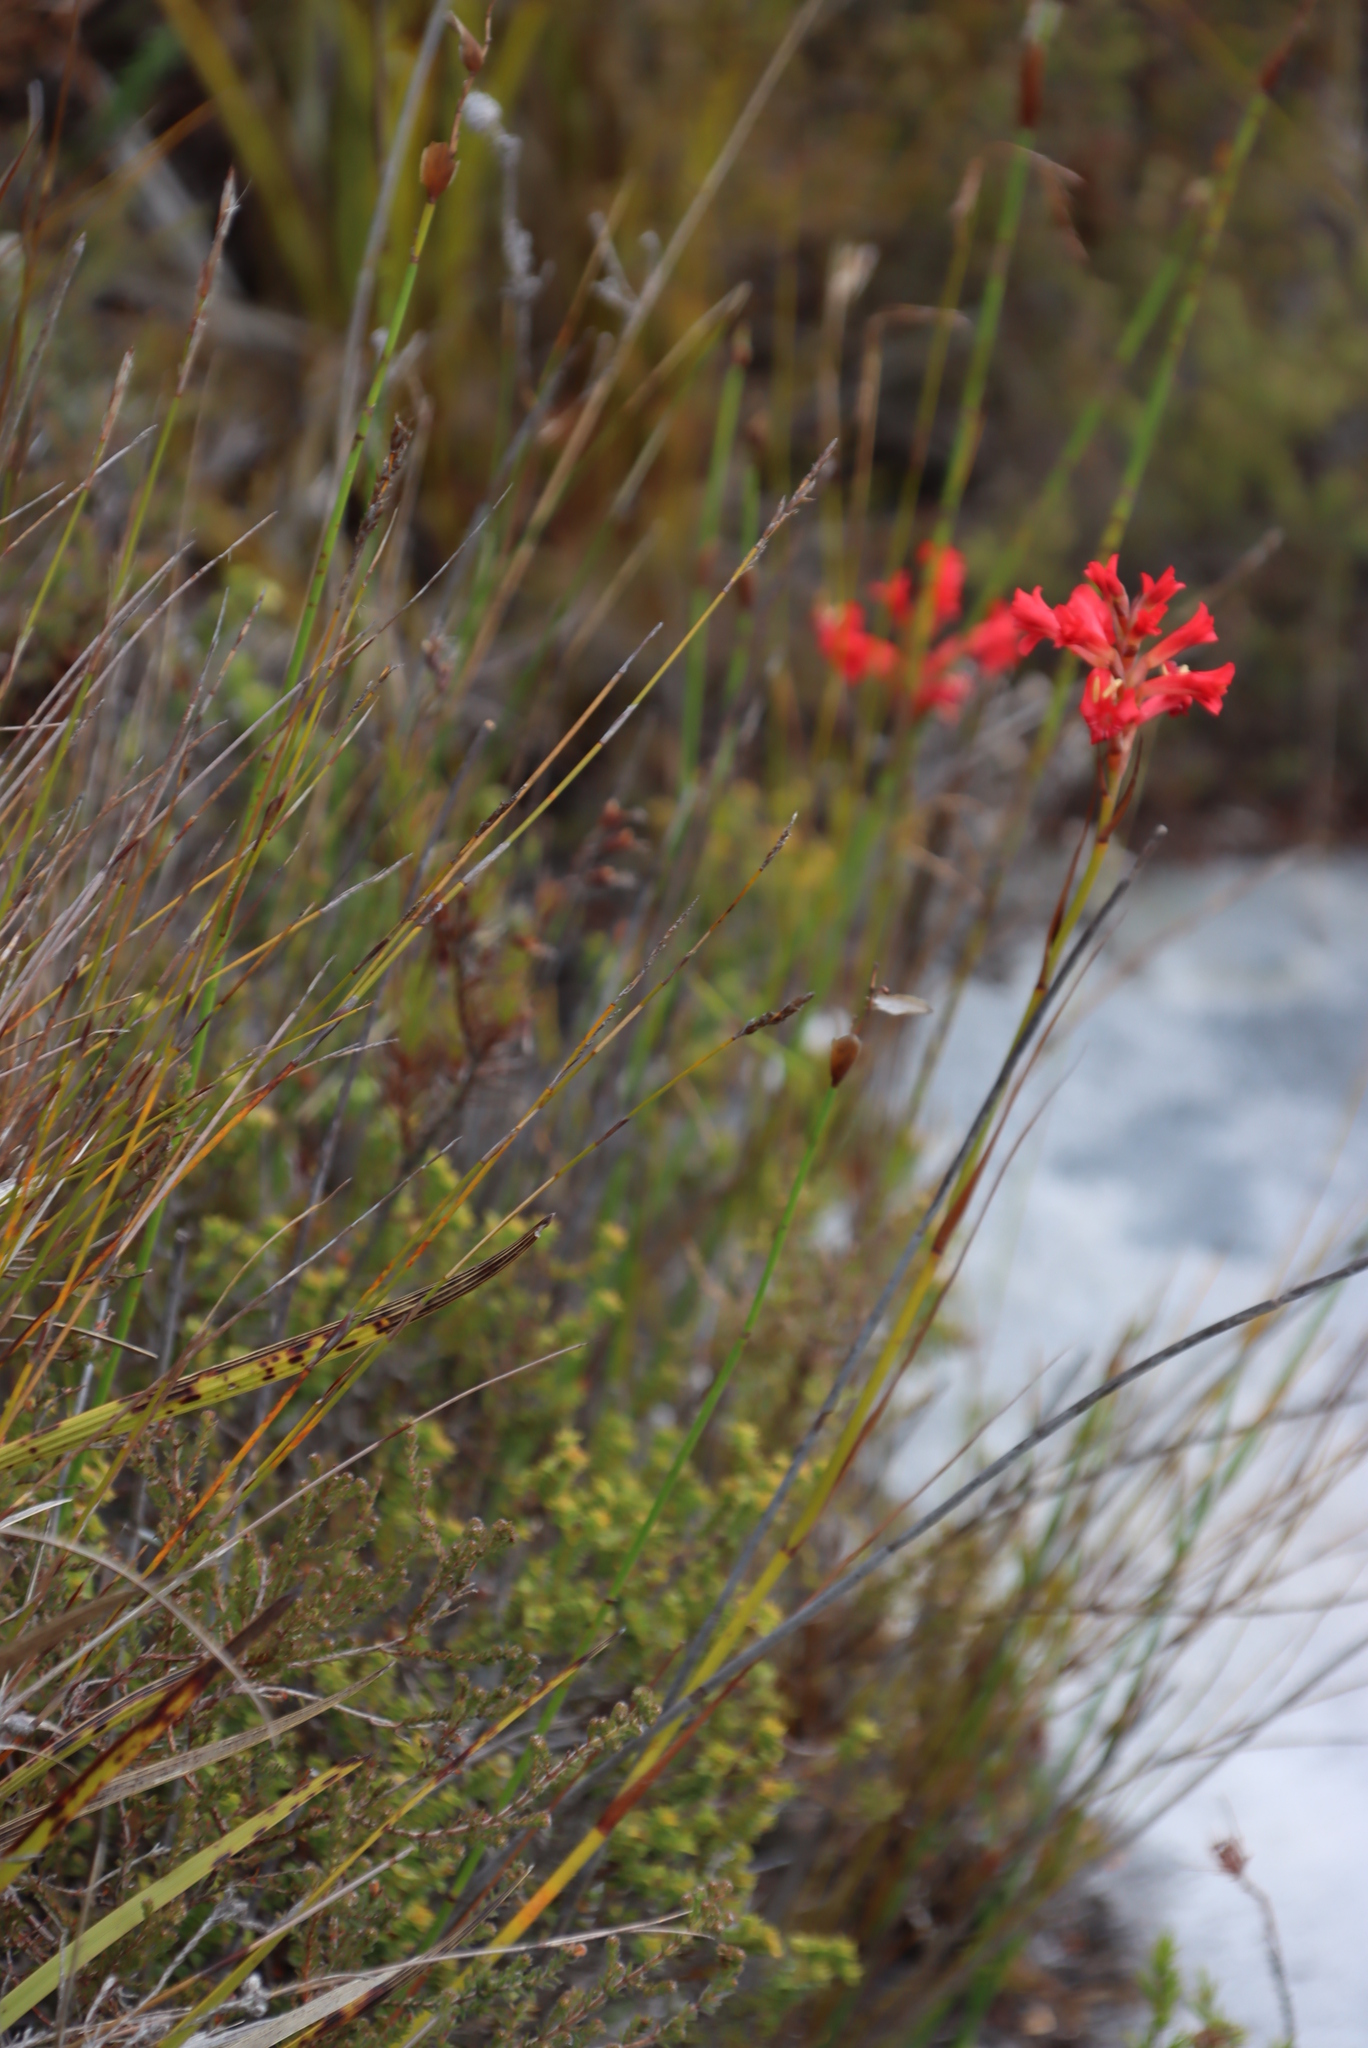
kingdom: Plantae
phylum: Tracheophyta
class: Liliopsida
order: Asparagales
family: Iridaceae
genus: Tritoniopsis
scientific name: Tritoniopsis triticea
